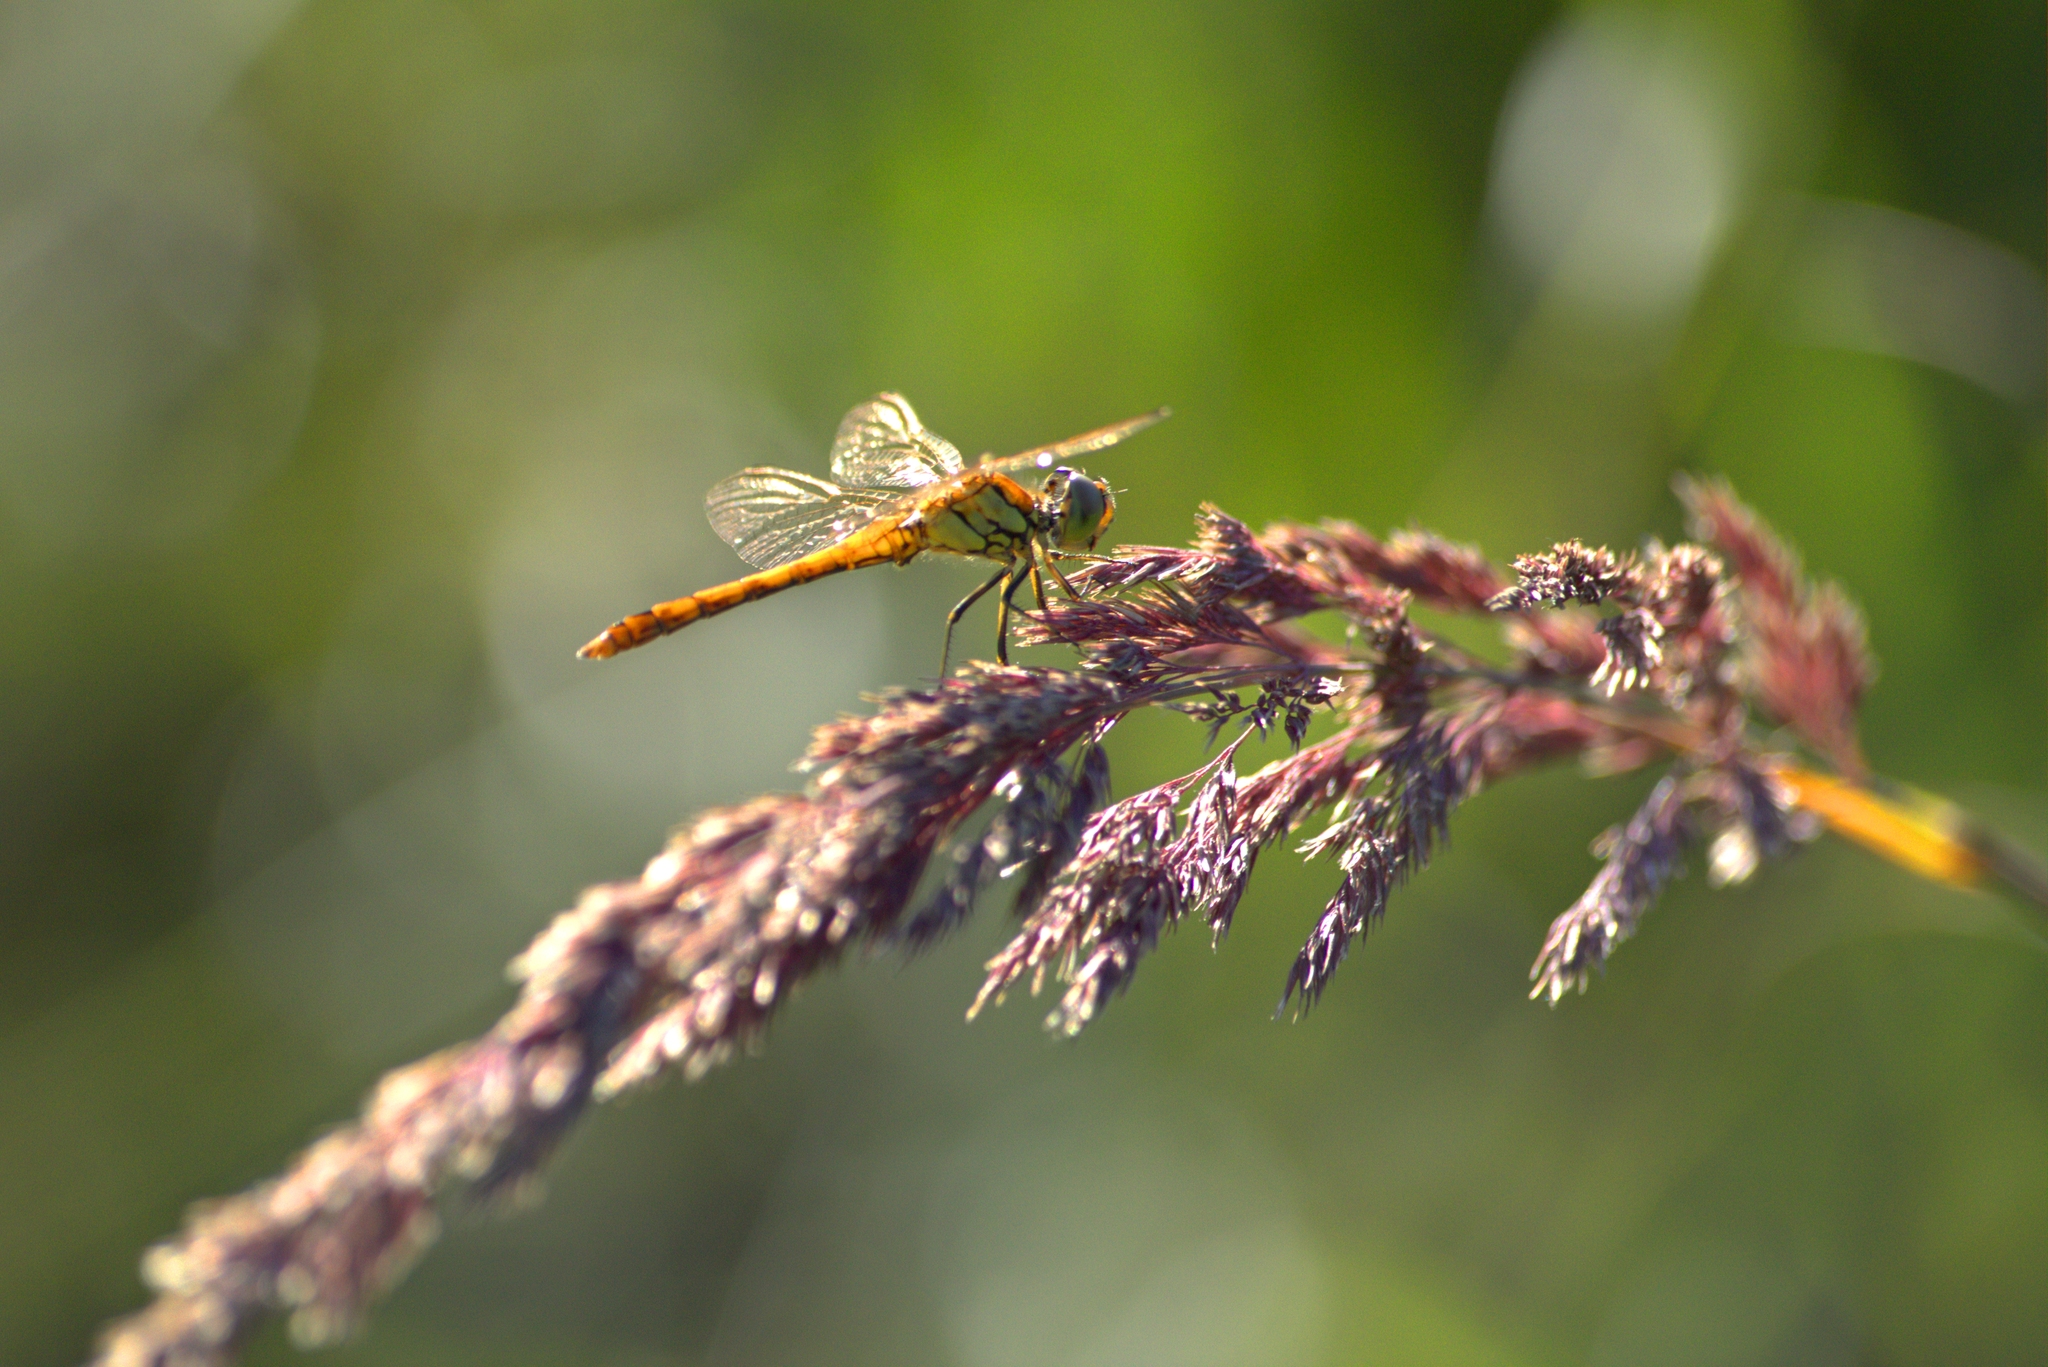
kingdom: Animalia
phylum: Arthropoda
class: Insecta
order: Odonata
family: Libellulidae
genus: Sympetrum
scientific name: Sympetrum vulgatum
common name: Vagrant darter
